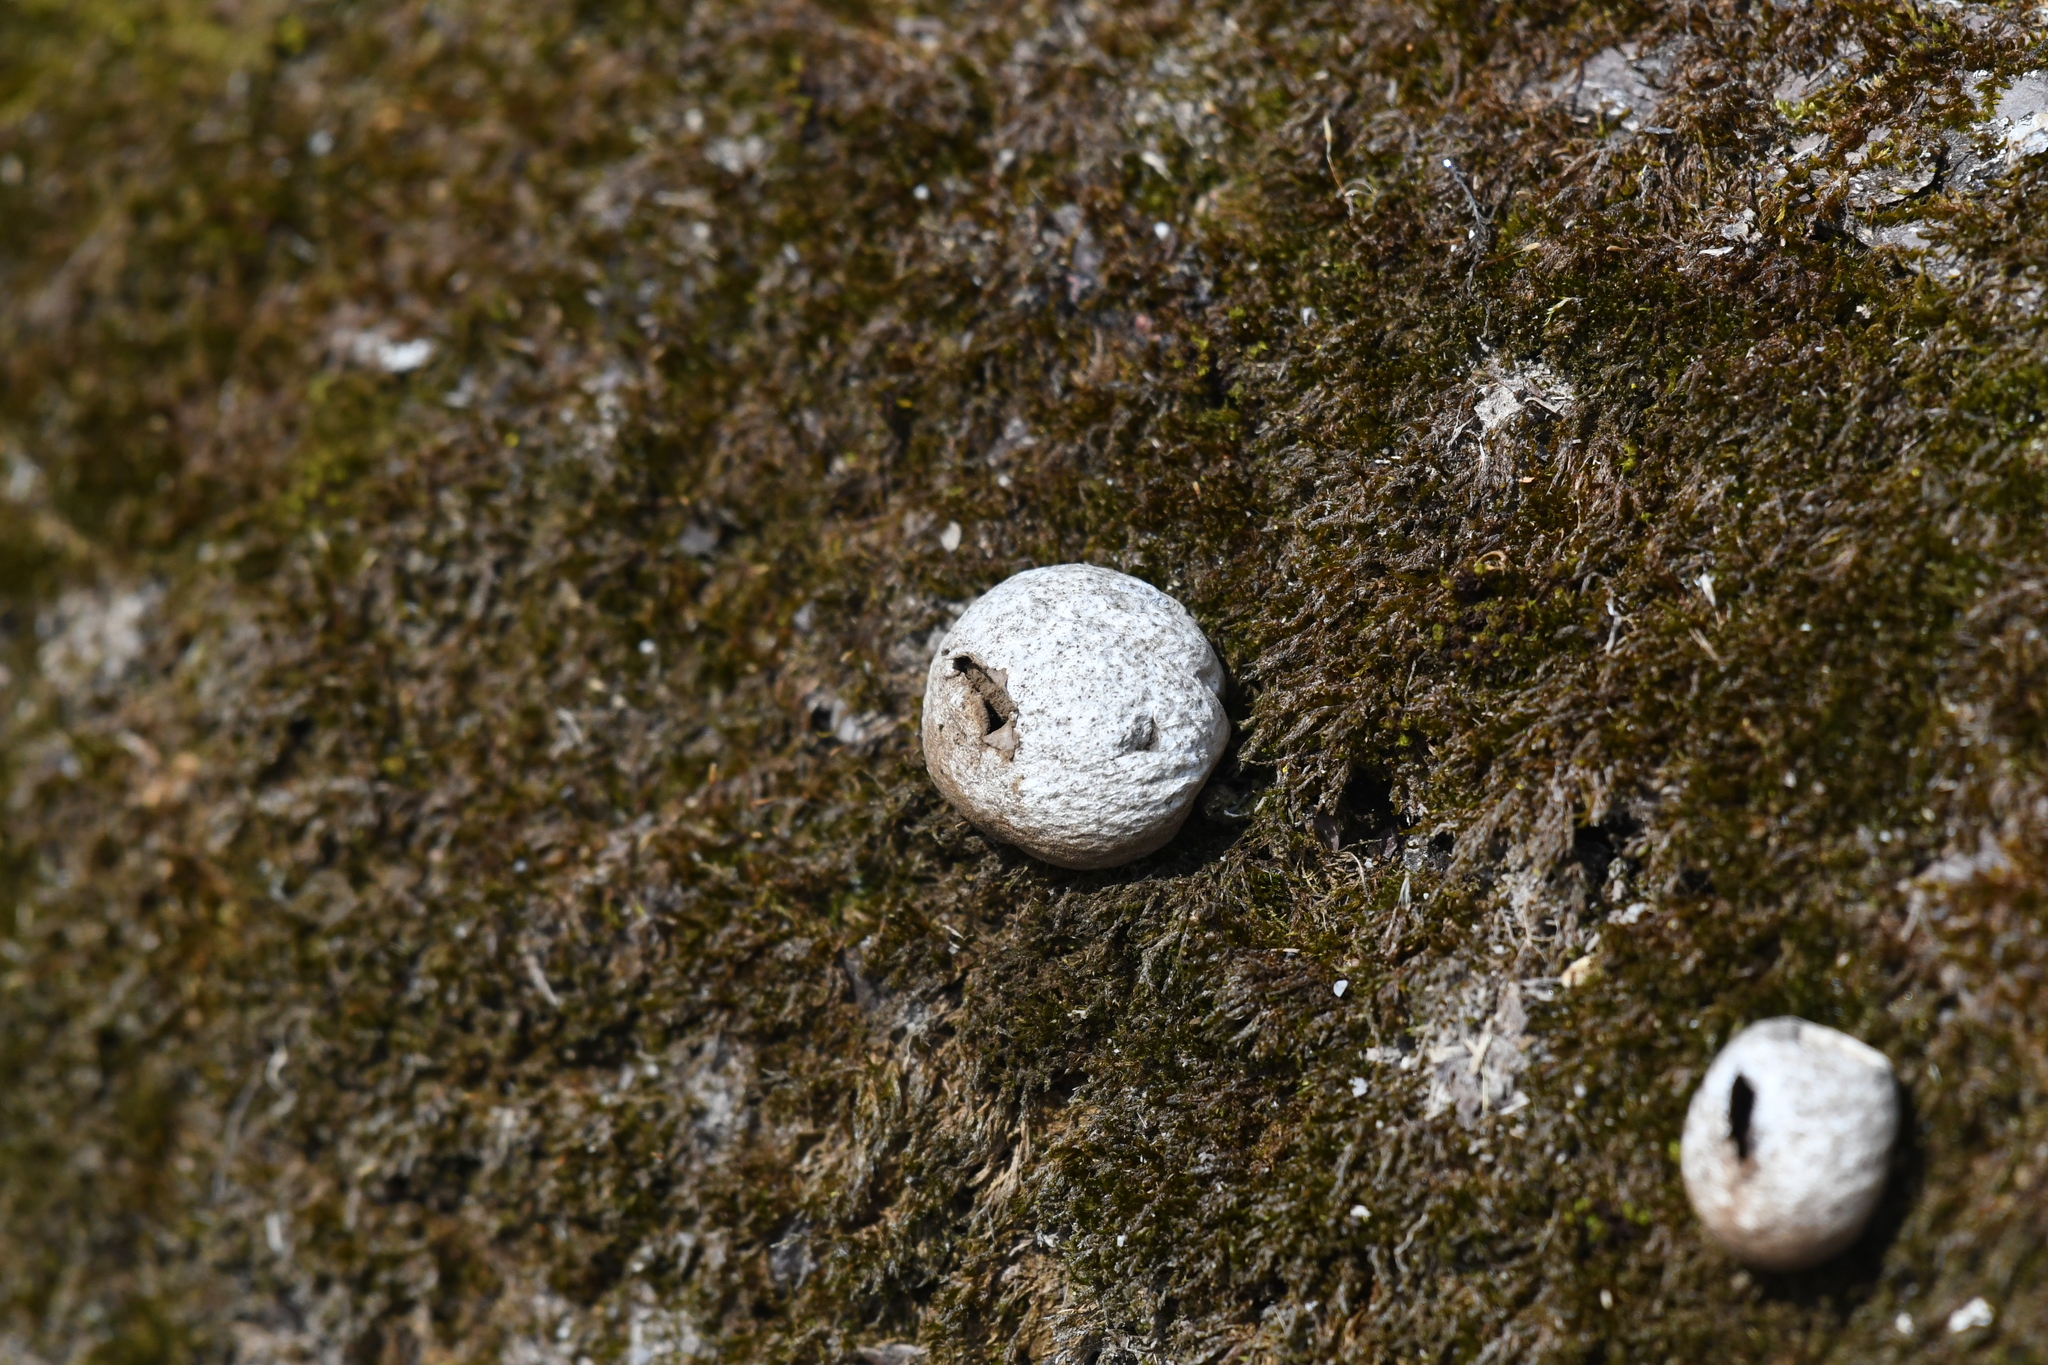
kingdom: Fungi
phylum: Basidiomycota
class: Agaricomycetes
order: Agaricales
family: Lycoperdaceae
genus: Apioperdon
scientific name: Apioperdon pyriforme
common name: Pear-shaped puffball
